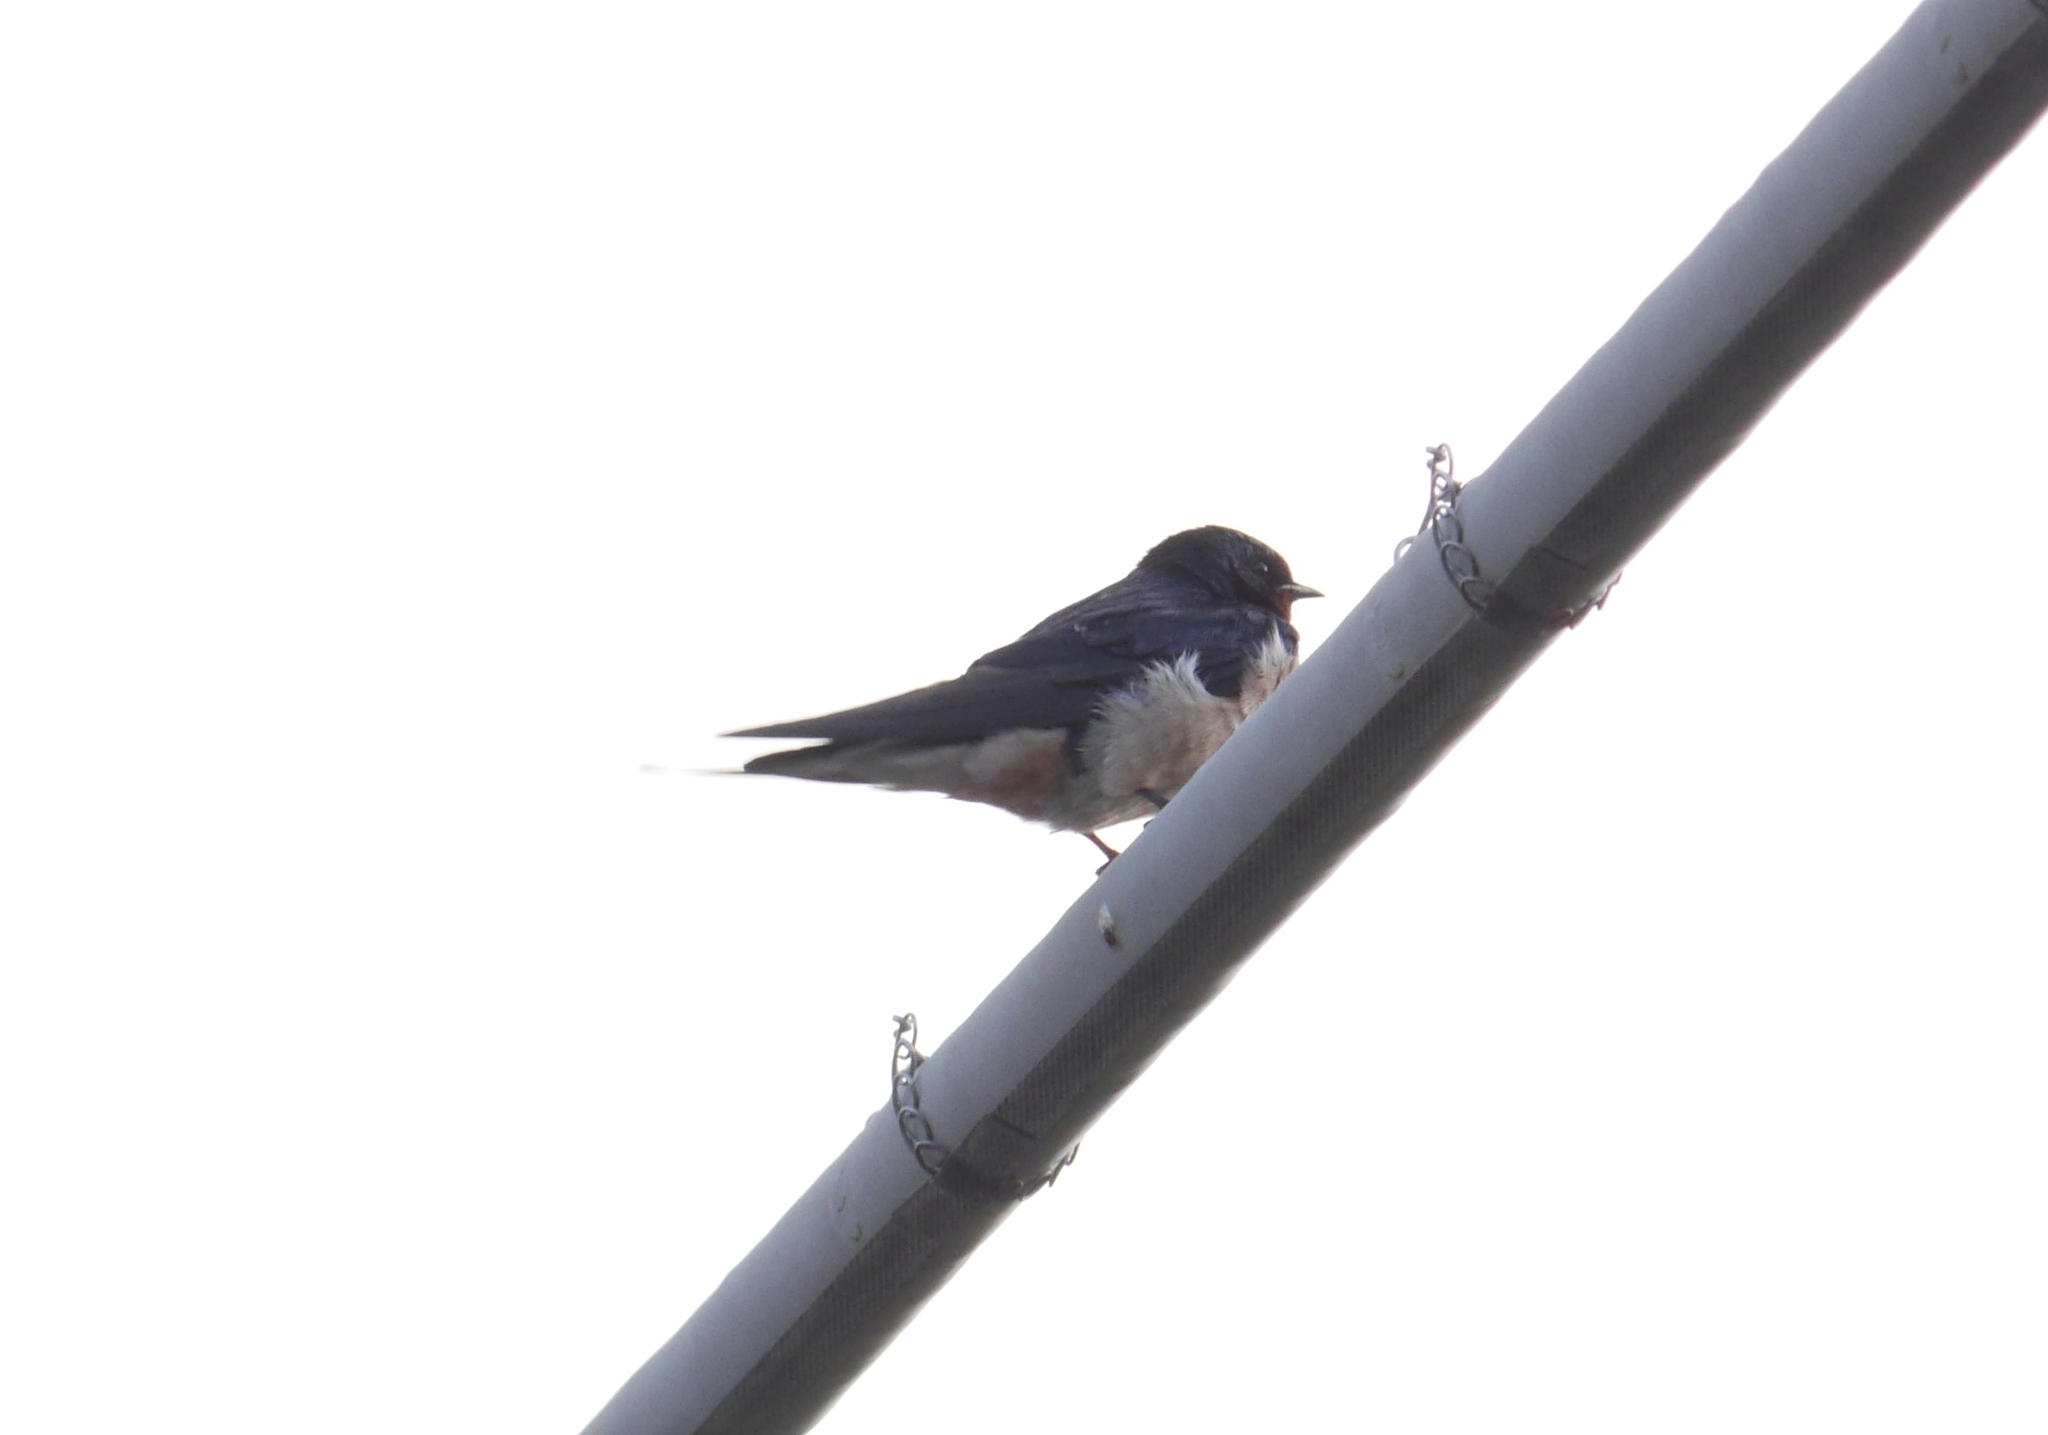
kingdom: Animalia
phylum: Chordata
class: Aves
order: Passeriformes
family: Hirundinidae
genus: Hirundo
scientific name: Hirundo rustica
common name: Barn swallow
